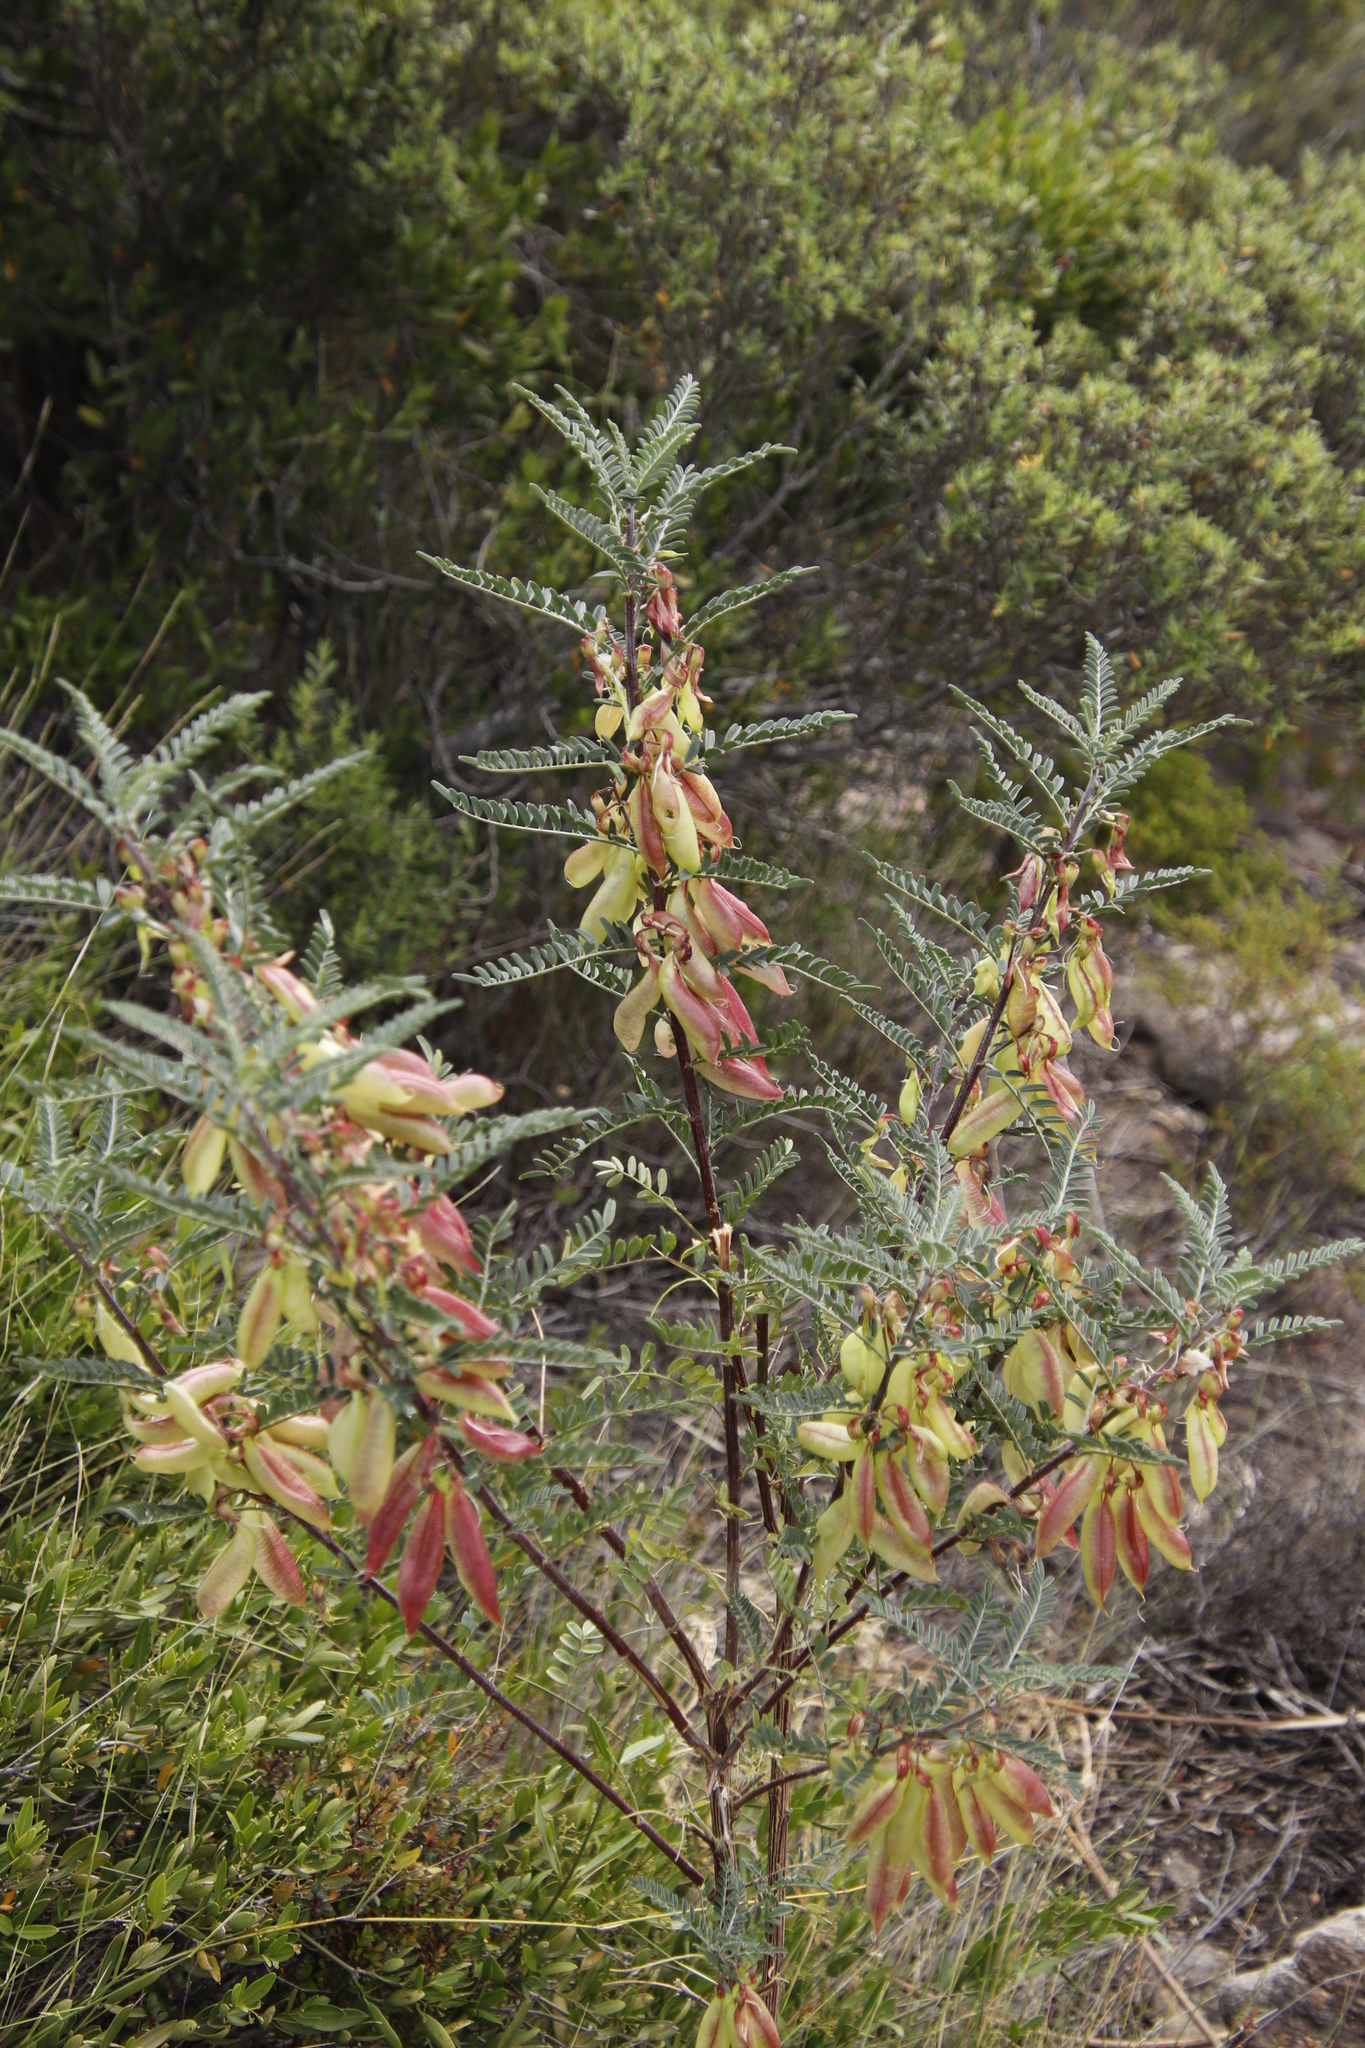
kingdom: Plantae
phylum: Tracheophyta
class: Magnoliopsida
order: Fabales
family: Fabaceae
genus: Lessertia
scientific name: Lessertia frutescens
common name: Balloon-pea
